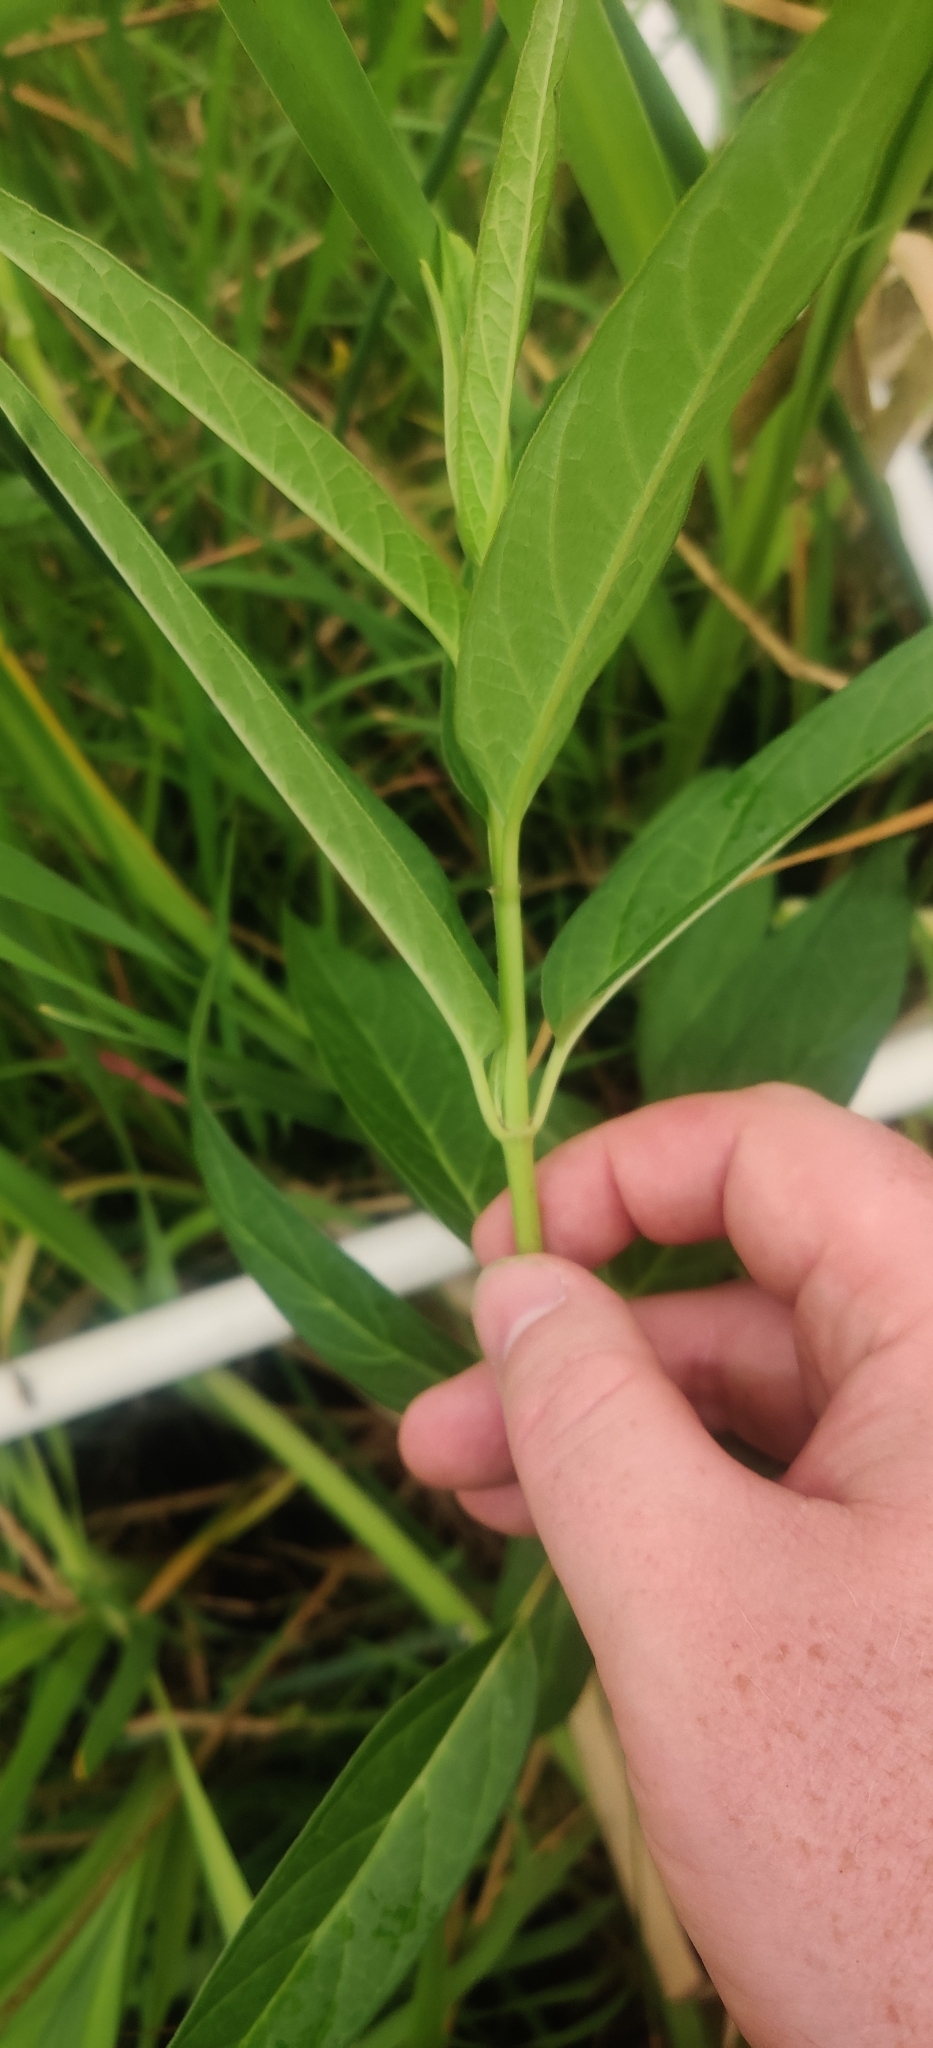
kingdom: Plantae
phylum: Tracheophyta
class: Magnoliopsida
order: Gentianales
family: Apocynaceae
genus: Asclepias
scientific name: Asclepias incarnata
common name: Swamp milkweed
